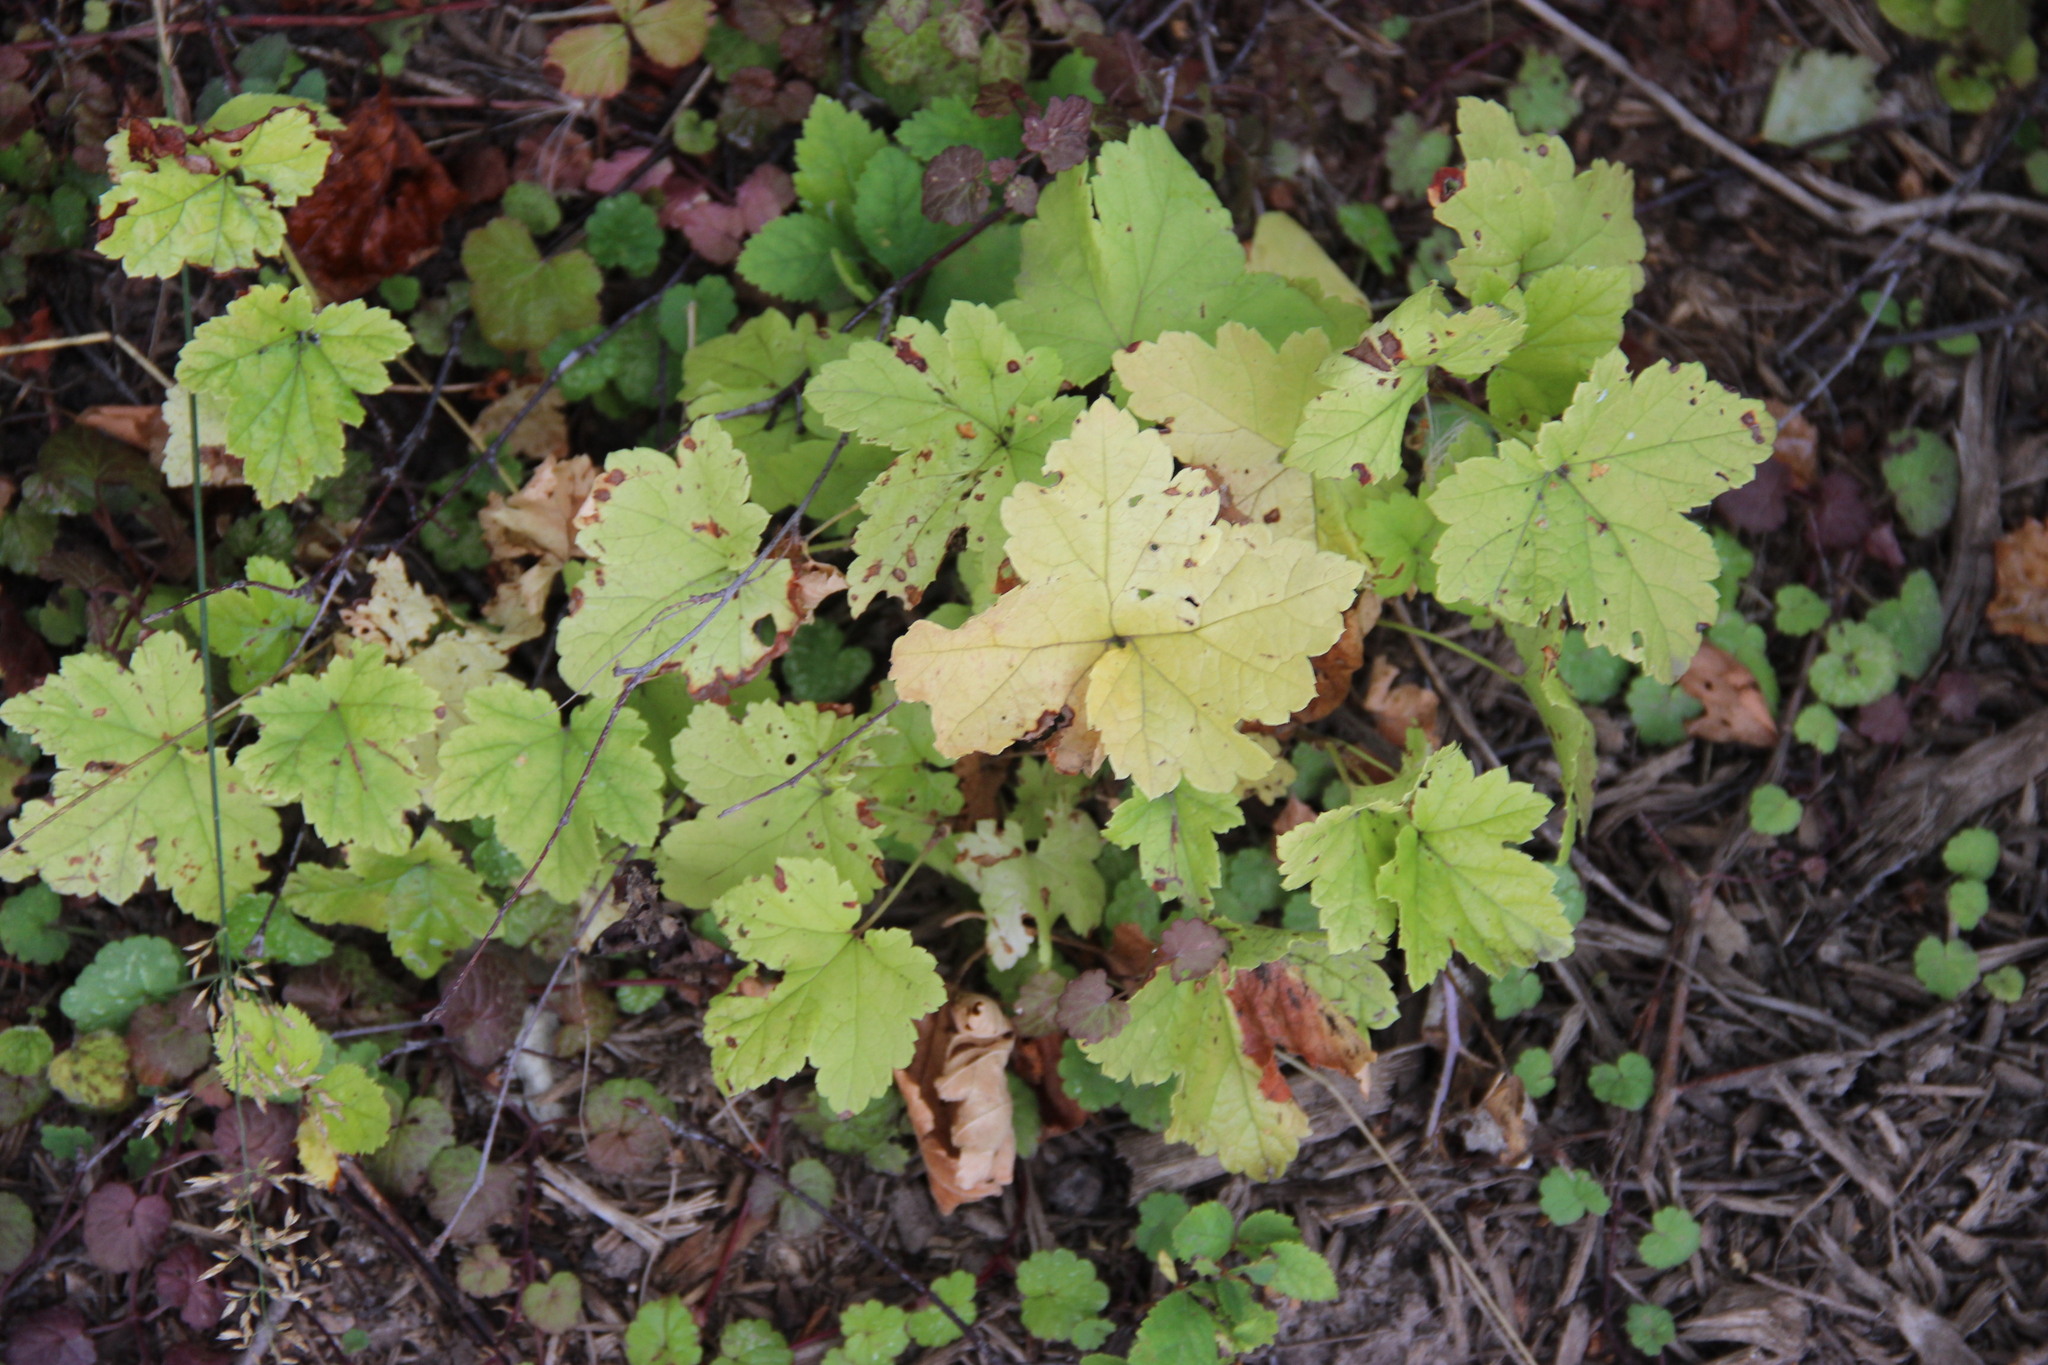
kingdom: Plantae
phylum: Tracheophyta
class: Magnoliopsida
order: Saxifragales
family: Grossulariaceae
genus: Ribes
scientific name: Ribes
